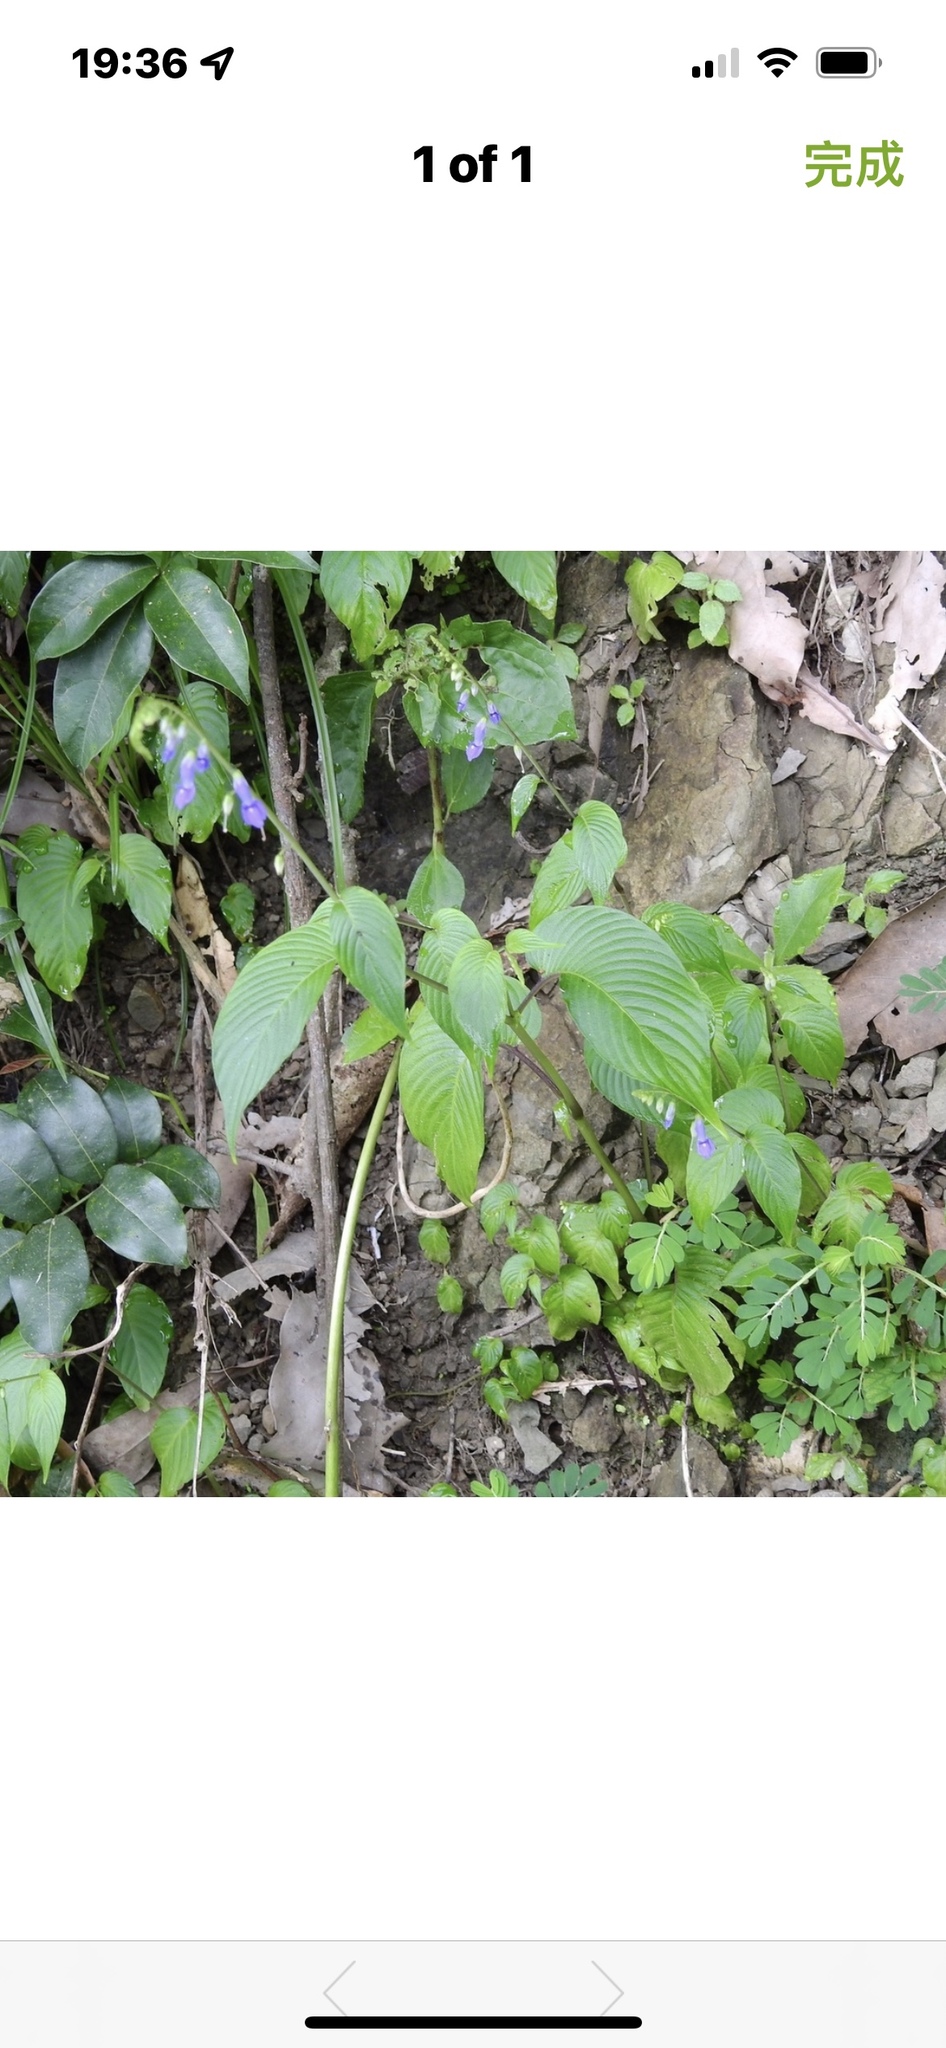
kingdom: Plantae
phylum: Tracheophyta
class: Magnoliopsida
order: Lamiales
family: Gesneriaceae
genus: Rhynchoglossum
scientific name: Rhynchoglossum obliquum
